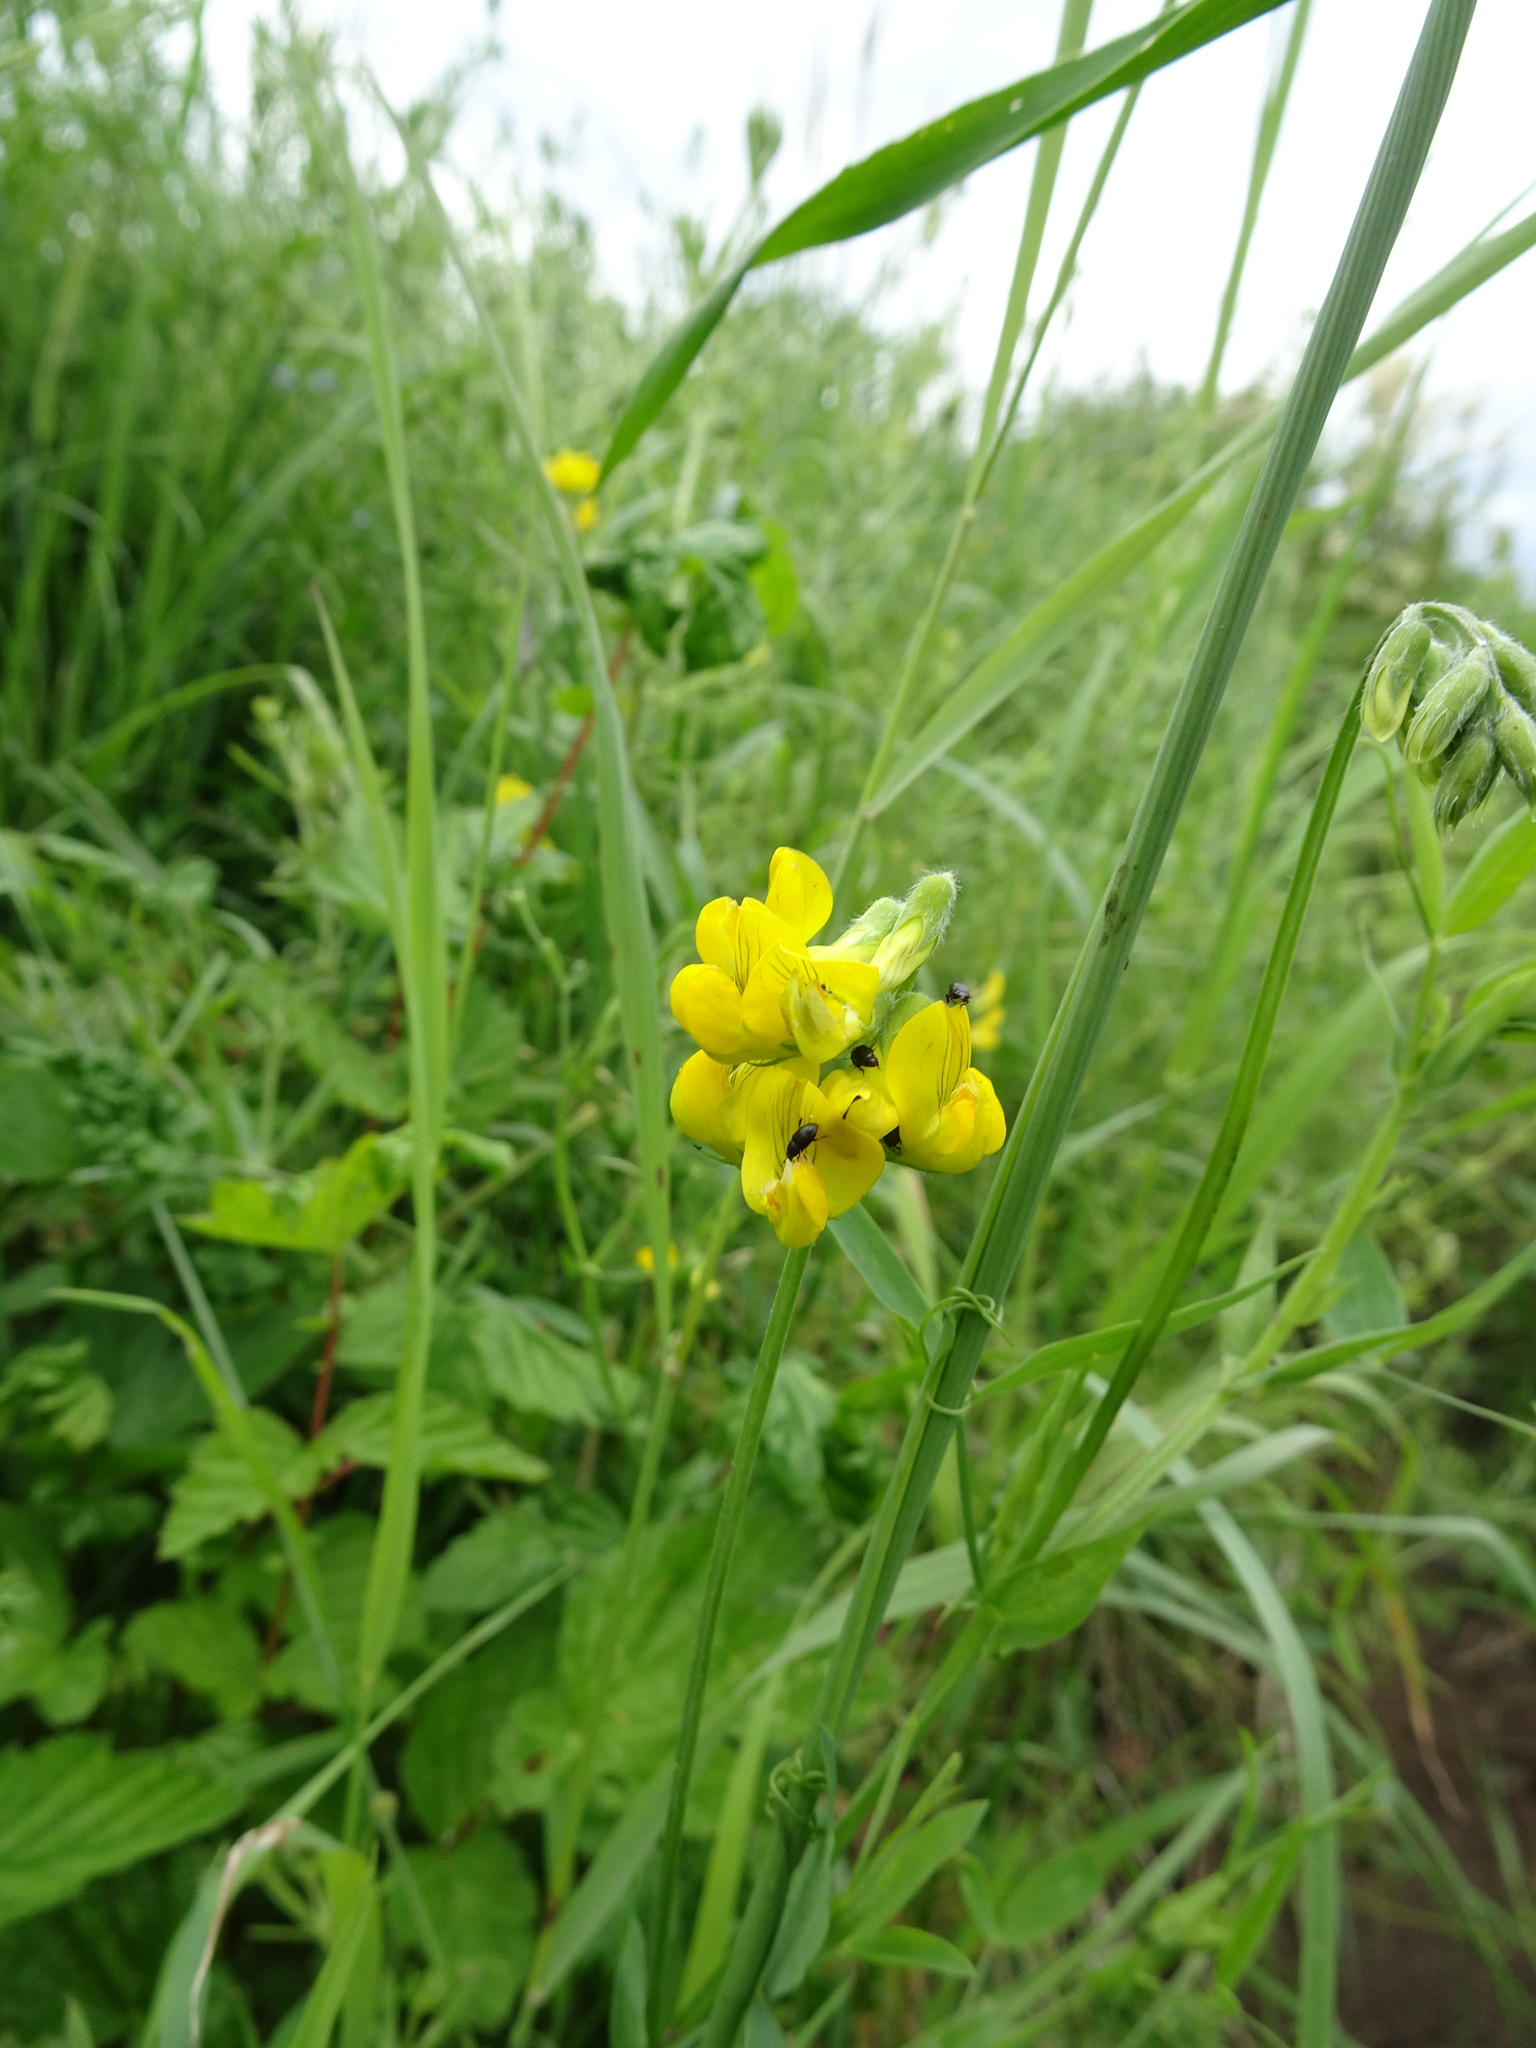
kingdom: Plantae
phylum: Tracheophyta
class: Magnoliopsida
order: Fabales
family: Fabaceae
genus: Lathyrus
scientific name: Lathyrus pratensis
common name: Meadow vetchling
